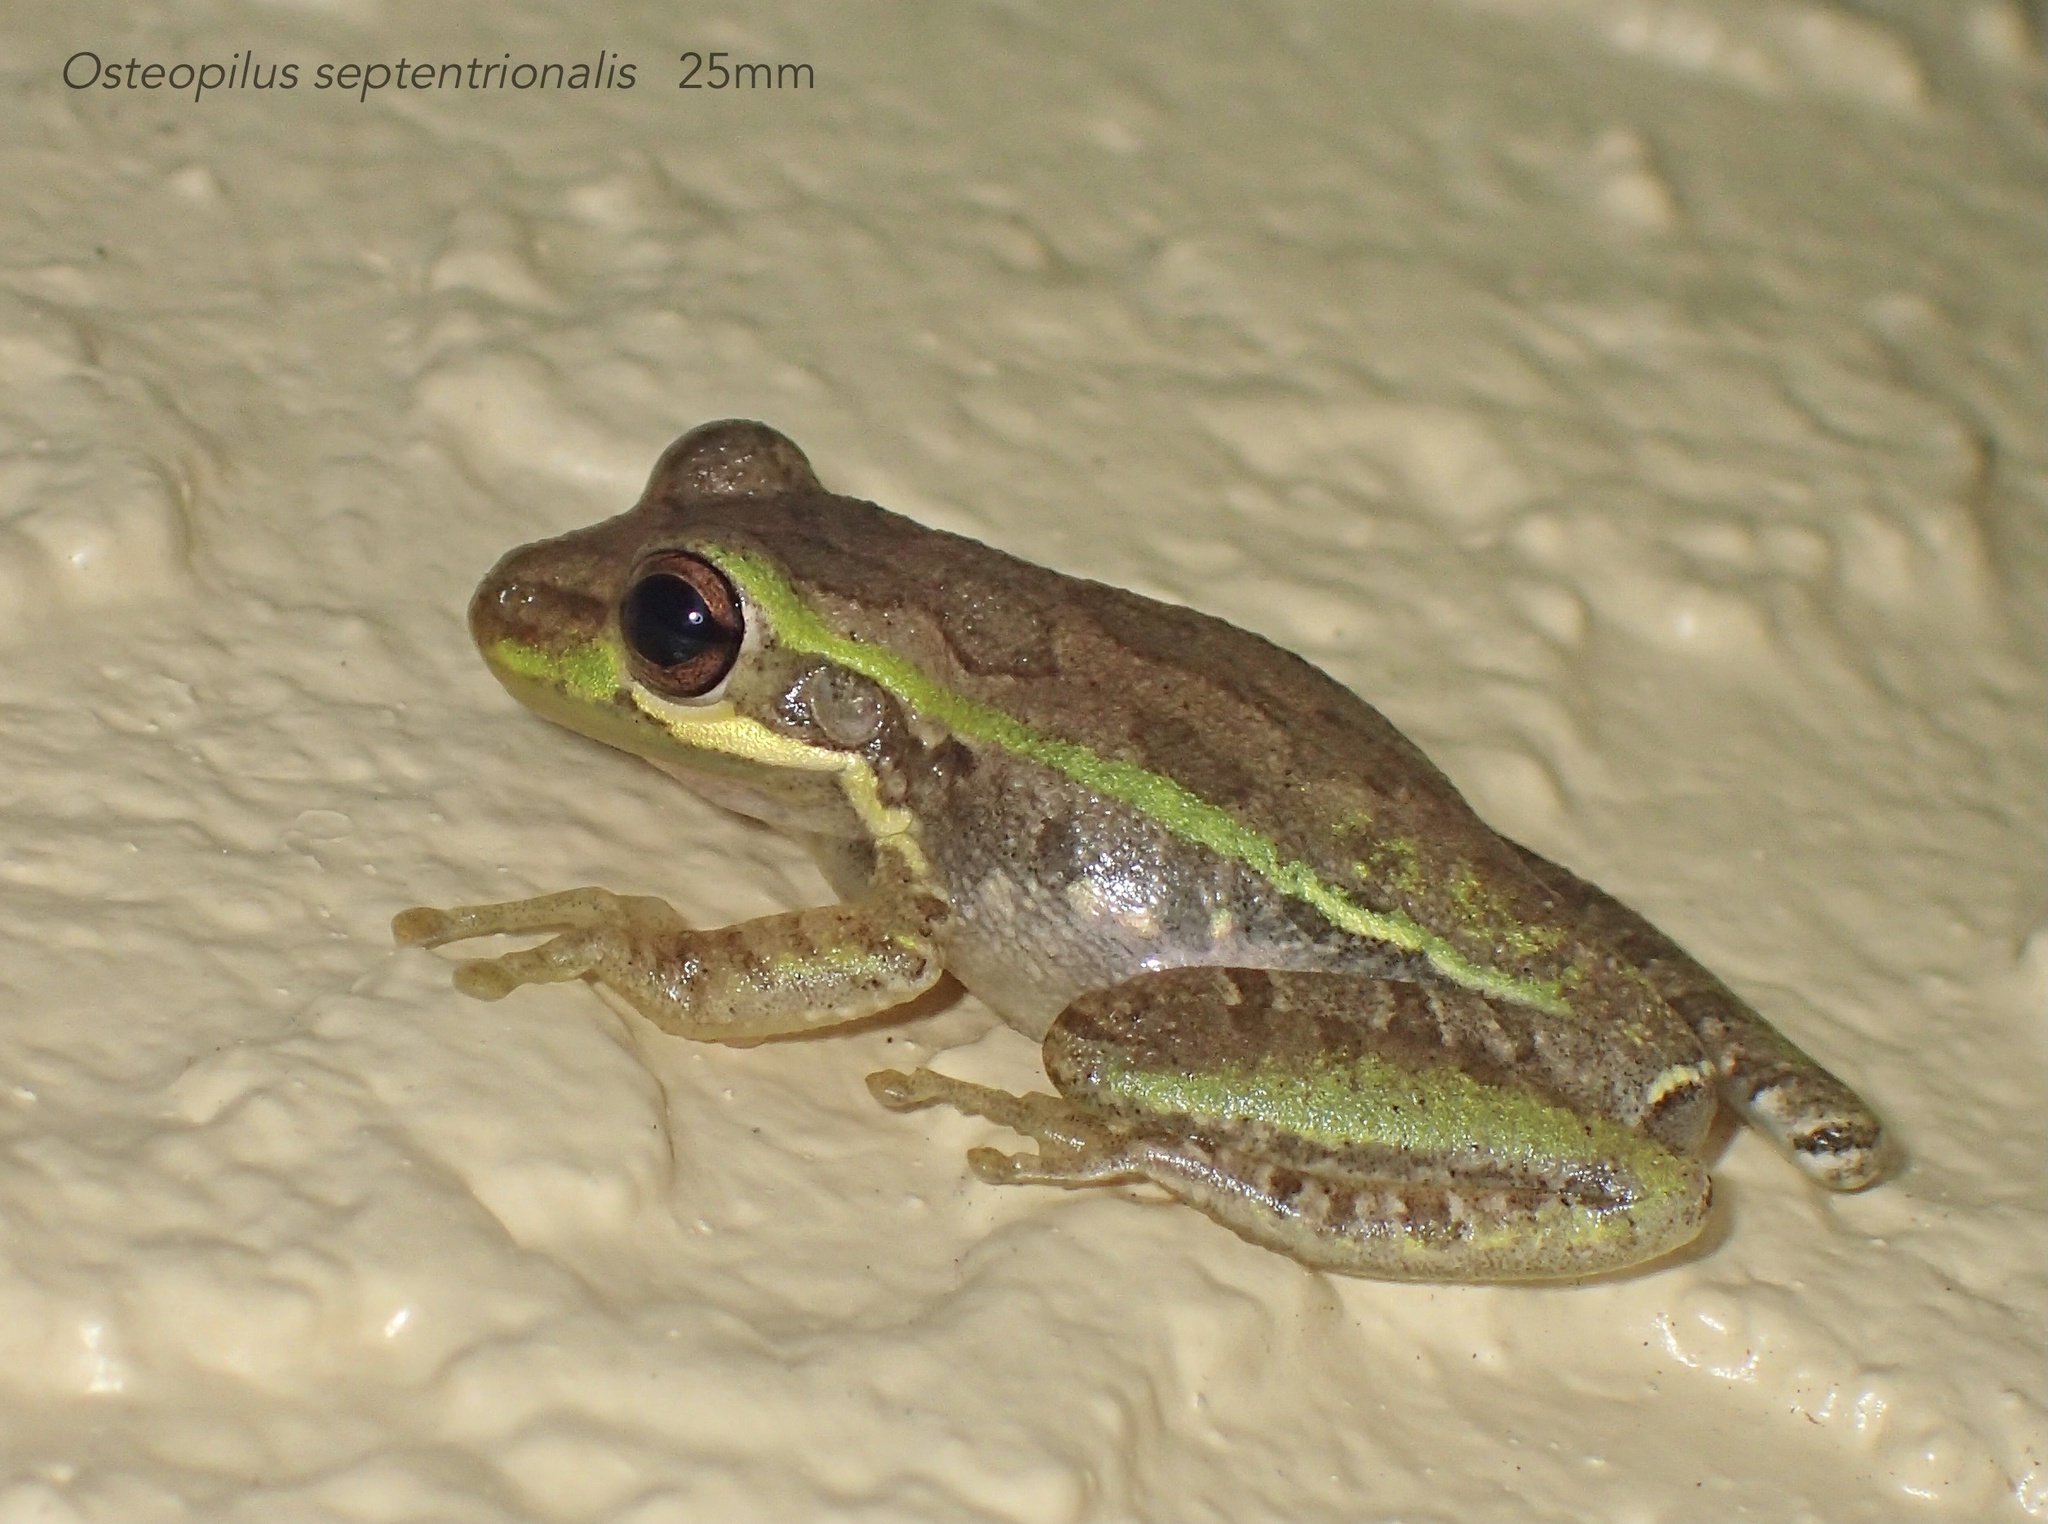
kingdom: Animalia
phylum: Chordata
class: Amphibia
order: Anura
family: Hylidae
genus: Osteopilus
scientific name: Osteopilus septentrionalis
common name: Cuban treefrog
